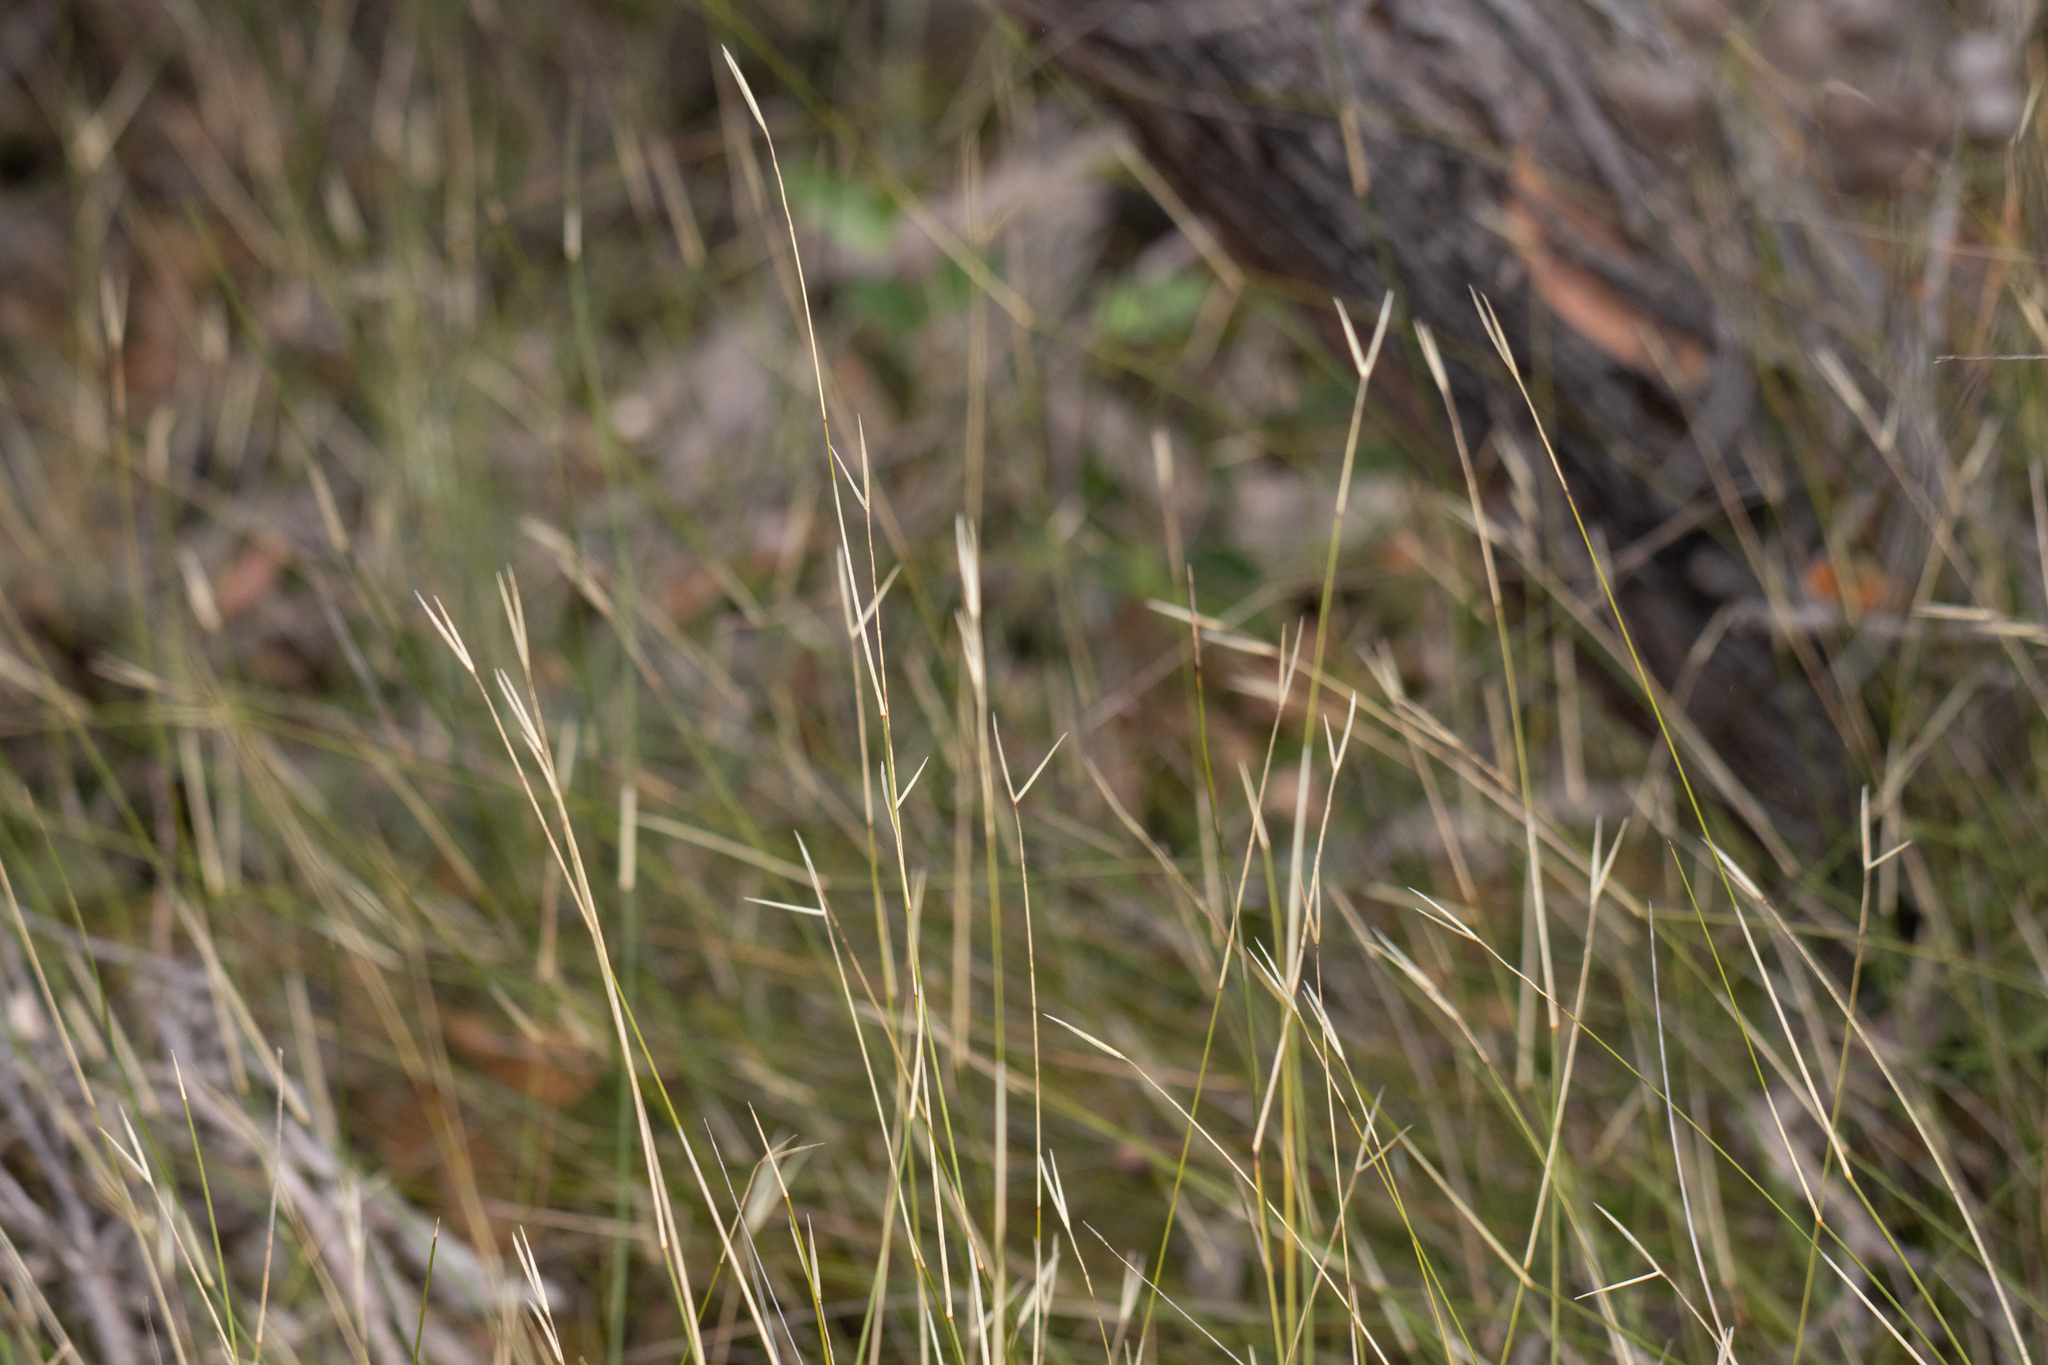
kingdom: Plantae
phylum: Tracheophyta
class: Liliopsida
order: Poales
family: Poaceae
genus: Austrostipa
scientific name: Austrostipa muelleri
